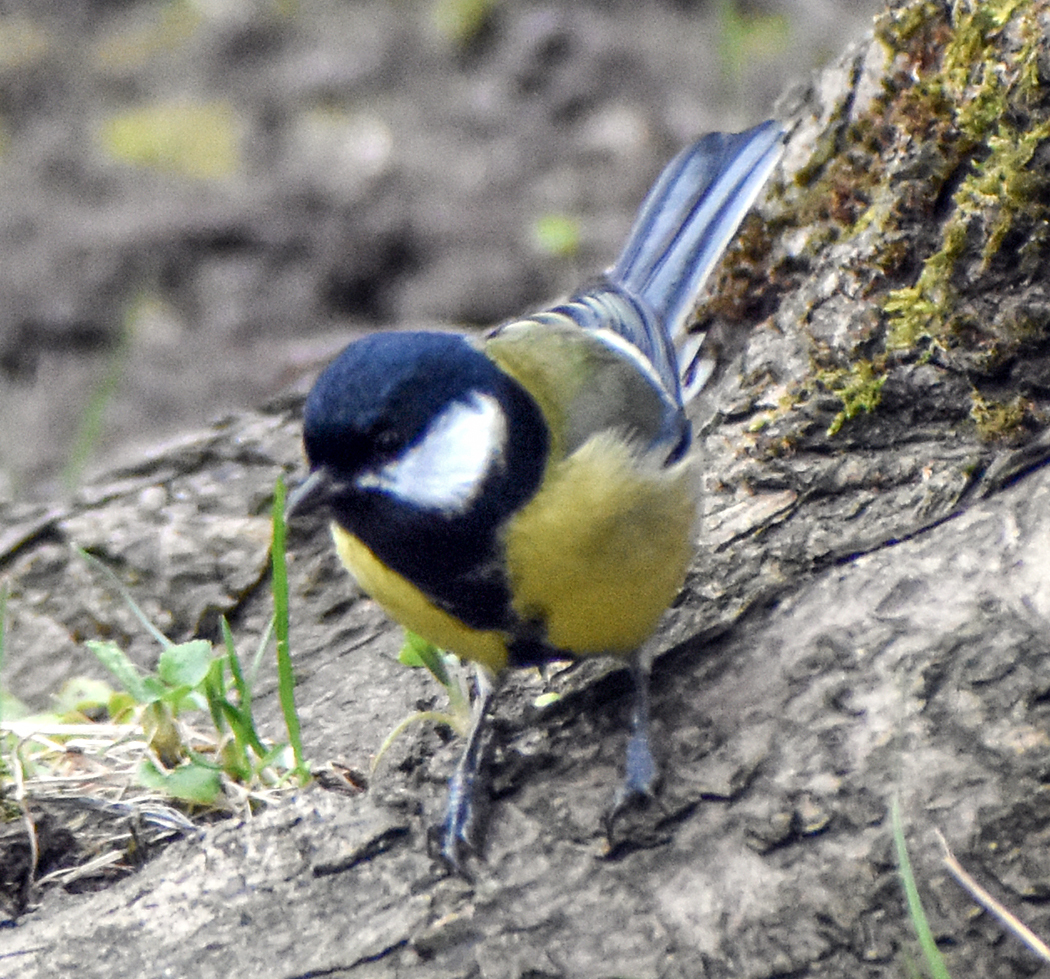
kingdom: Animalia
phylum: Chordata
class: Aves
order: Passeriformes
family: Paridae
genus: Parus
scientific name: Parus major
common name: Great tit
